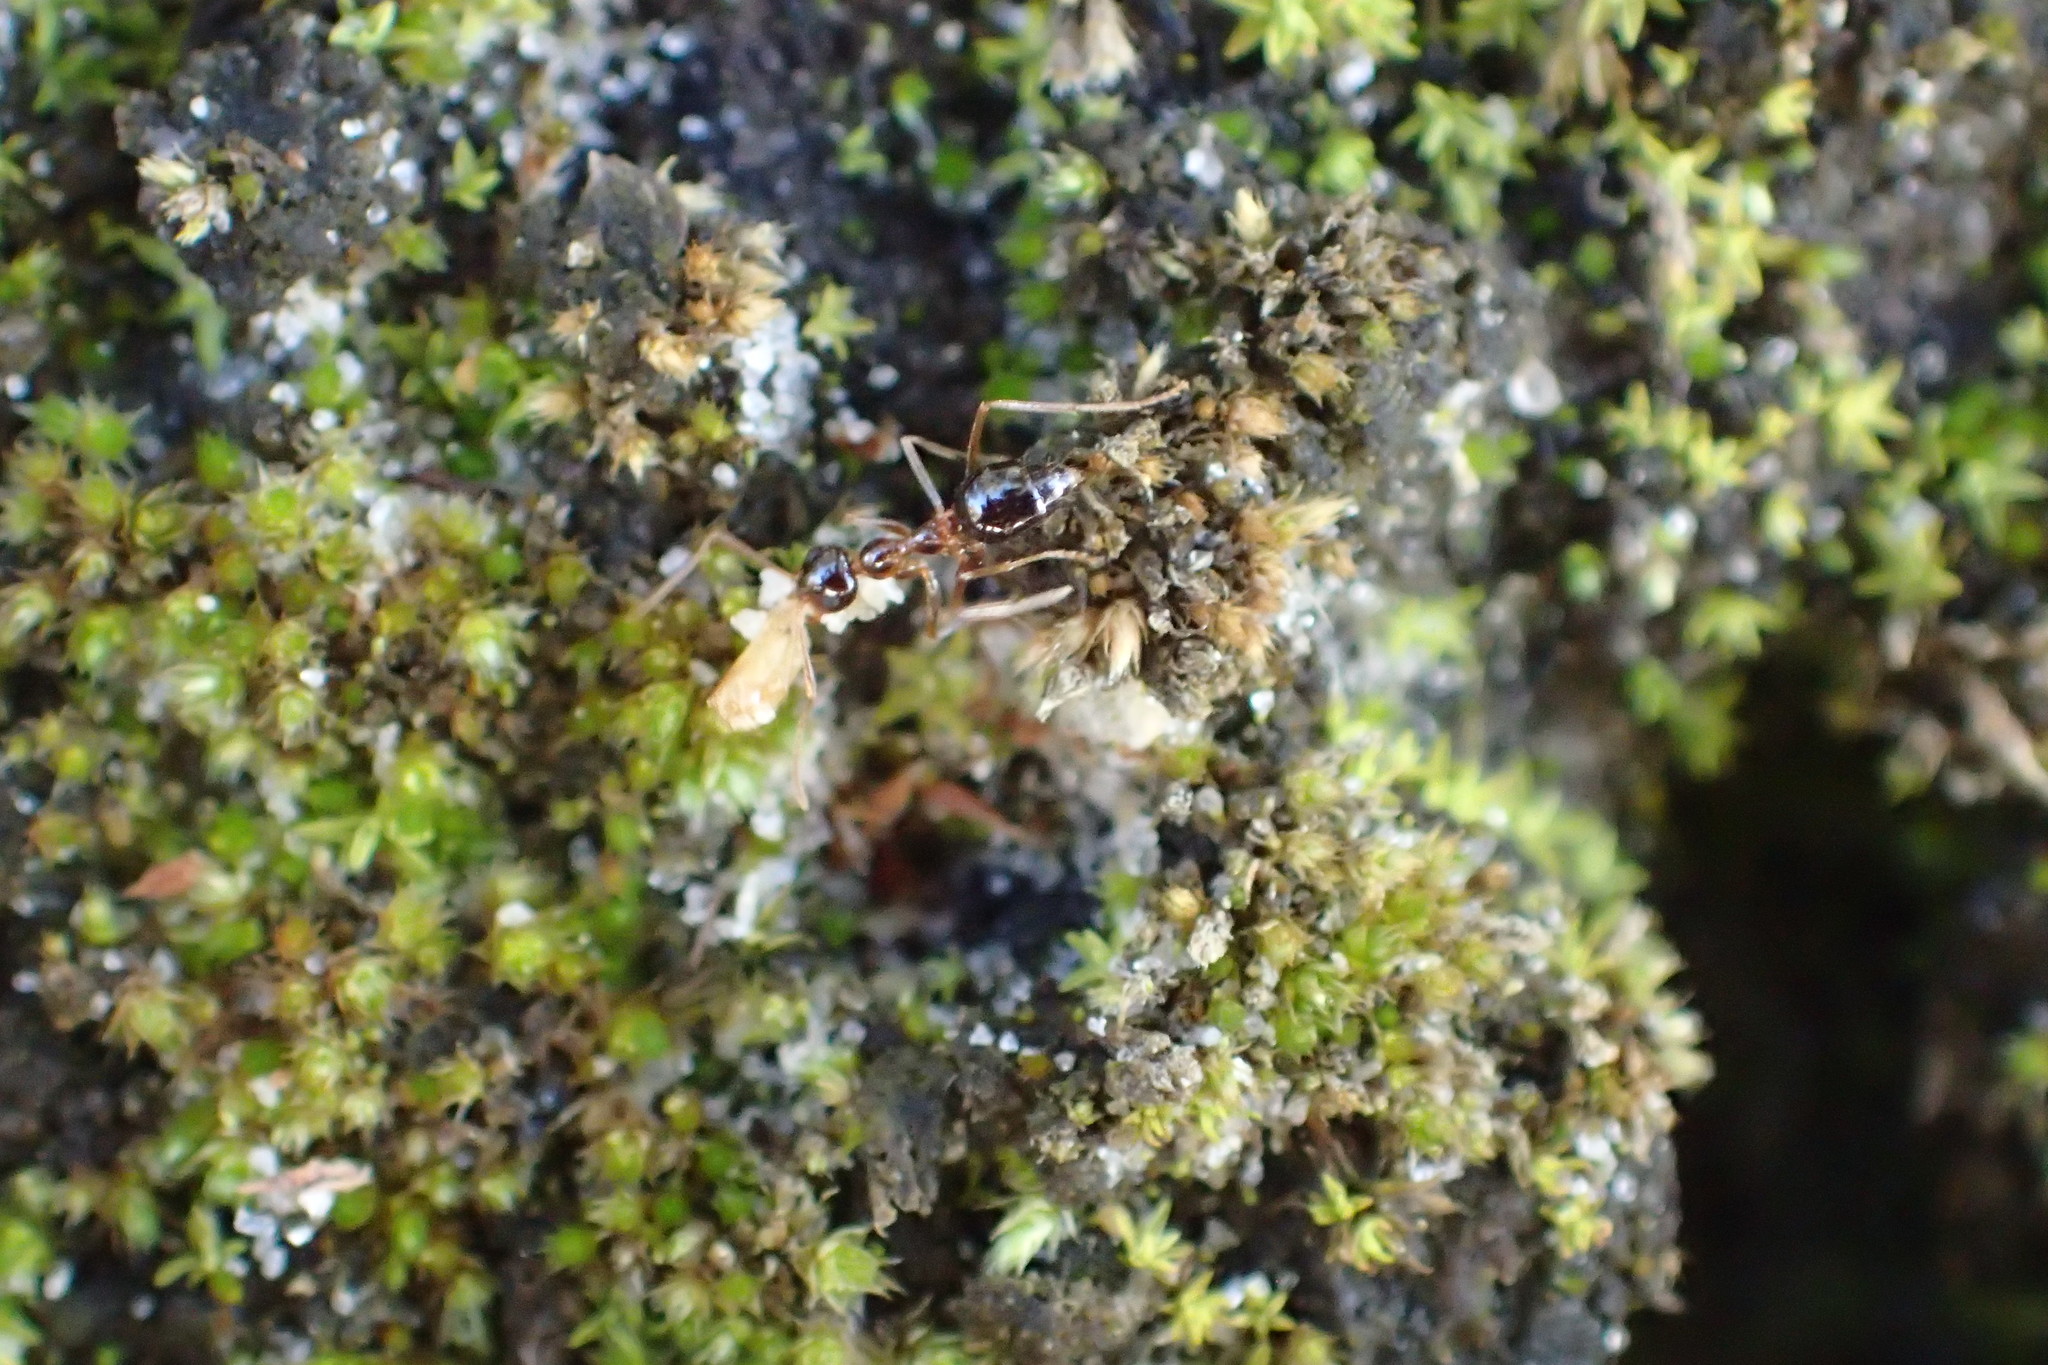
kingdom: Animalia
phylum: Arthropoda
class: Insecta
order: Hymenoptera
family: Formicidae
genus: Prenolepis
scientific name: Prenolepis imparis
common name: Small honey ant
